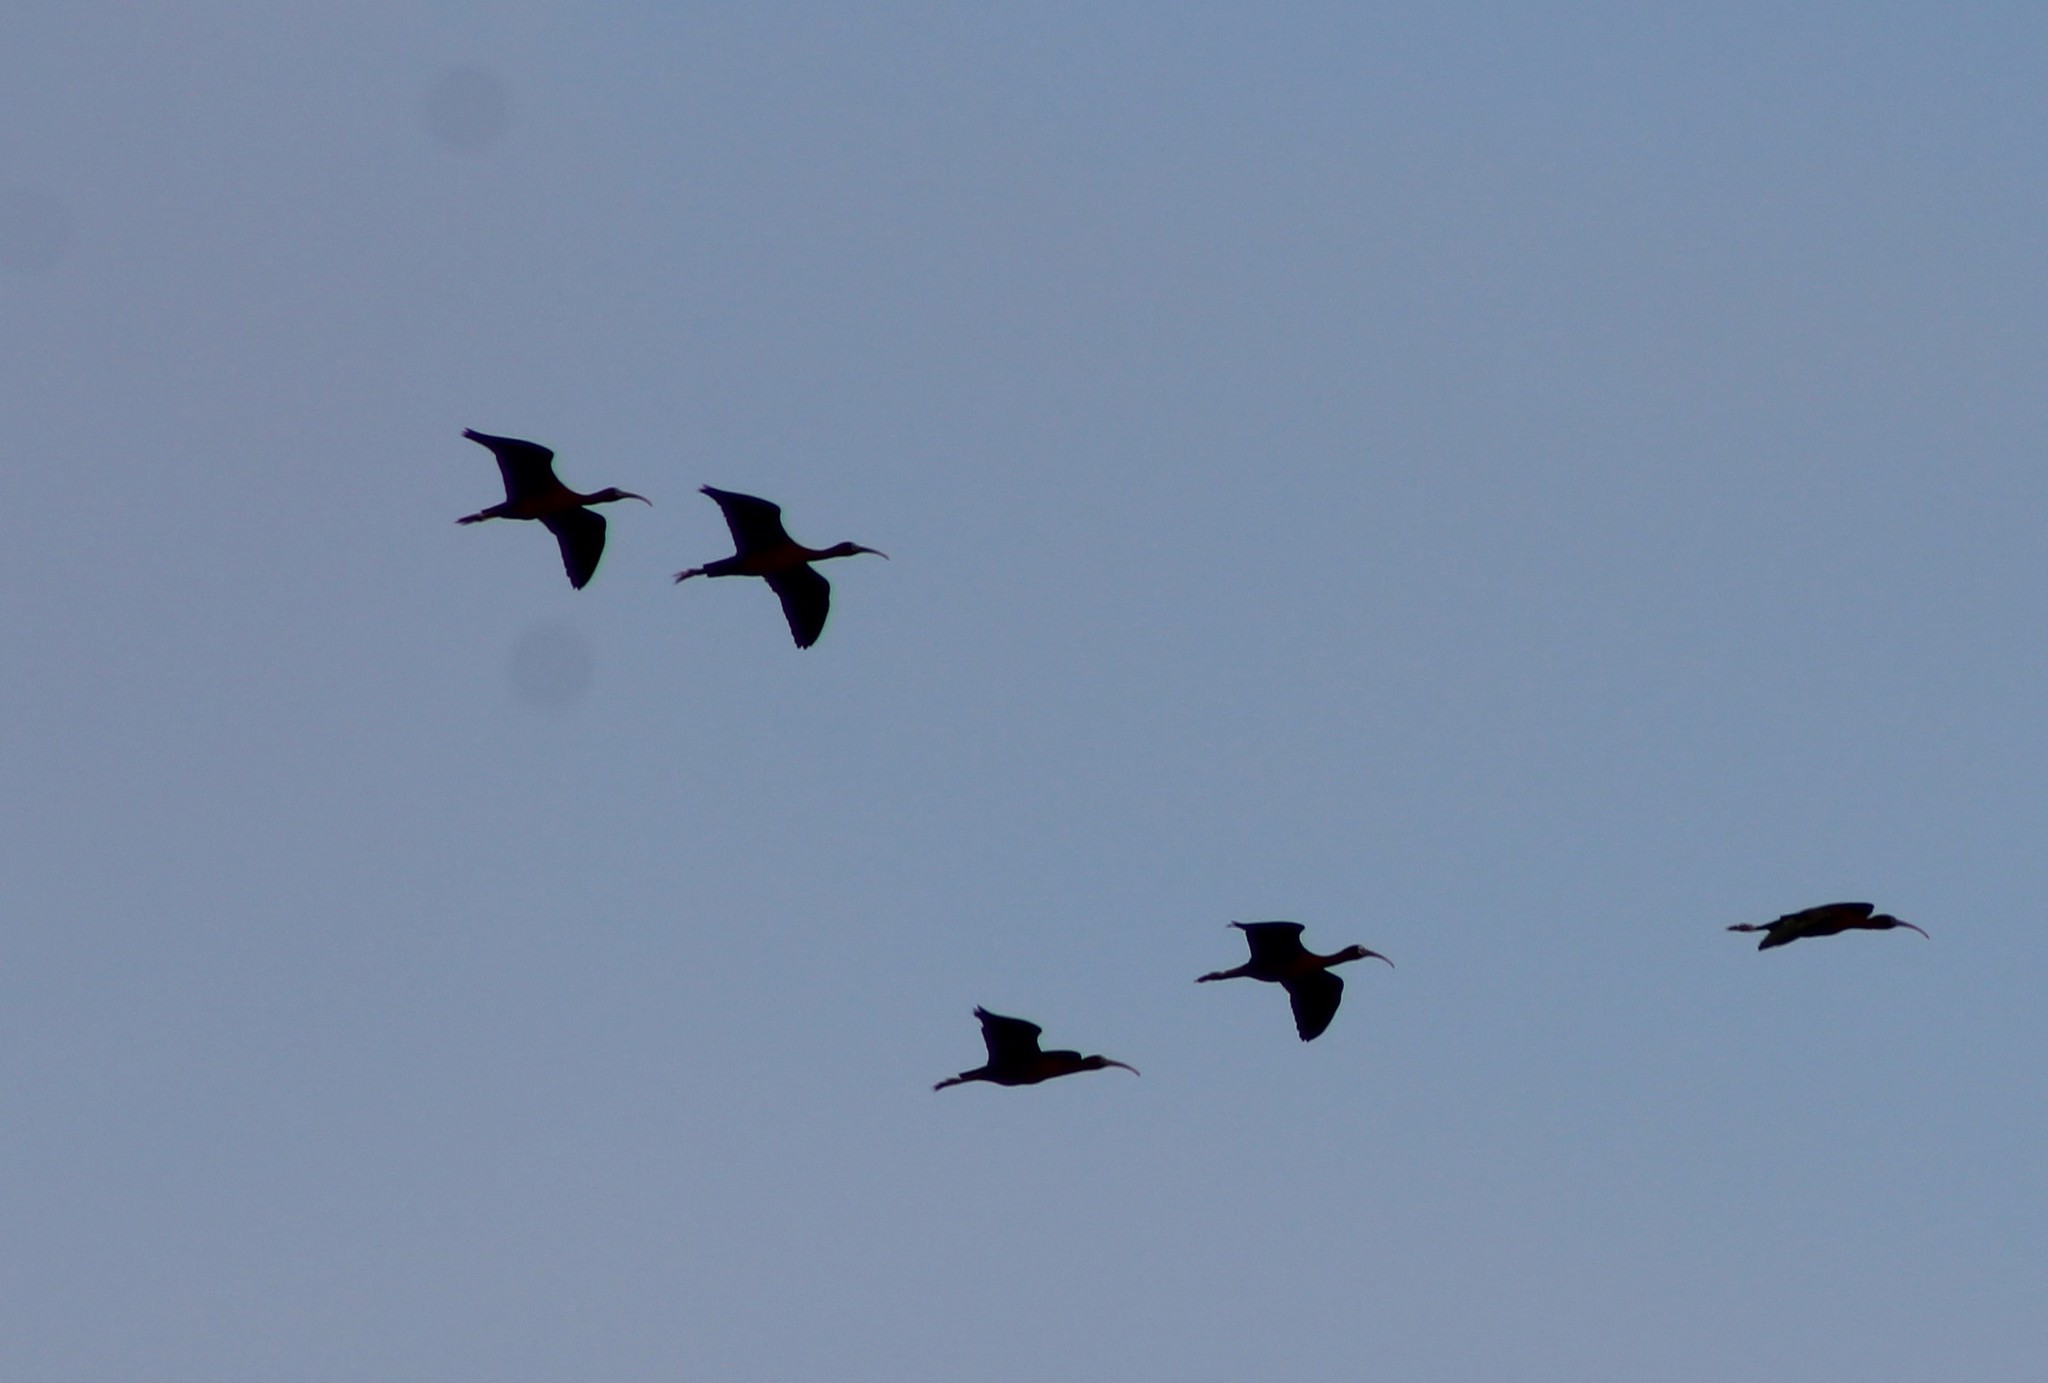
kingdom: Animalia
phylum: Chordata
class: Aves
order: Pelecaniformes
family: Threskiornithidae
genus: Plegadis
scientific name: Plegadis falcinellus
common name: Glossy ibis
